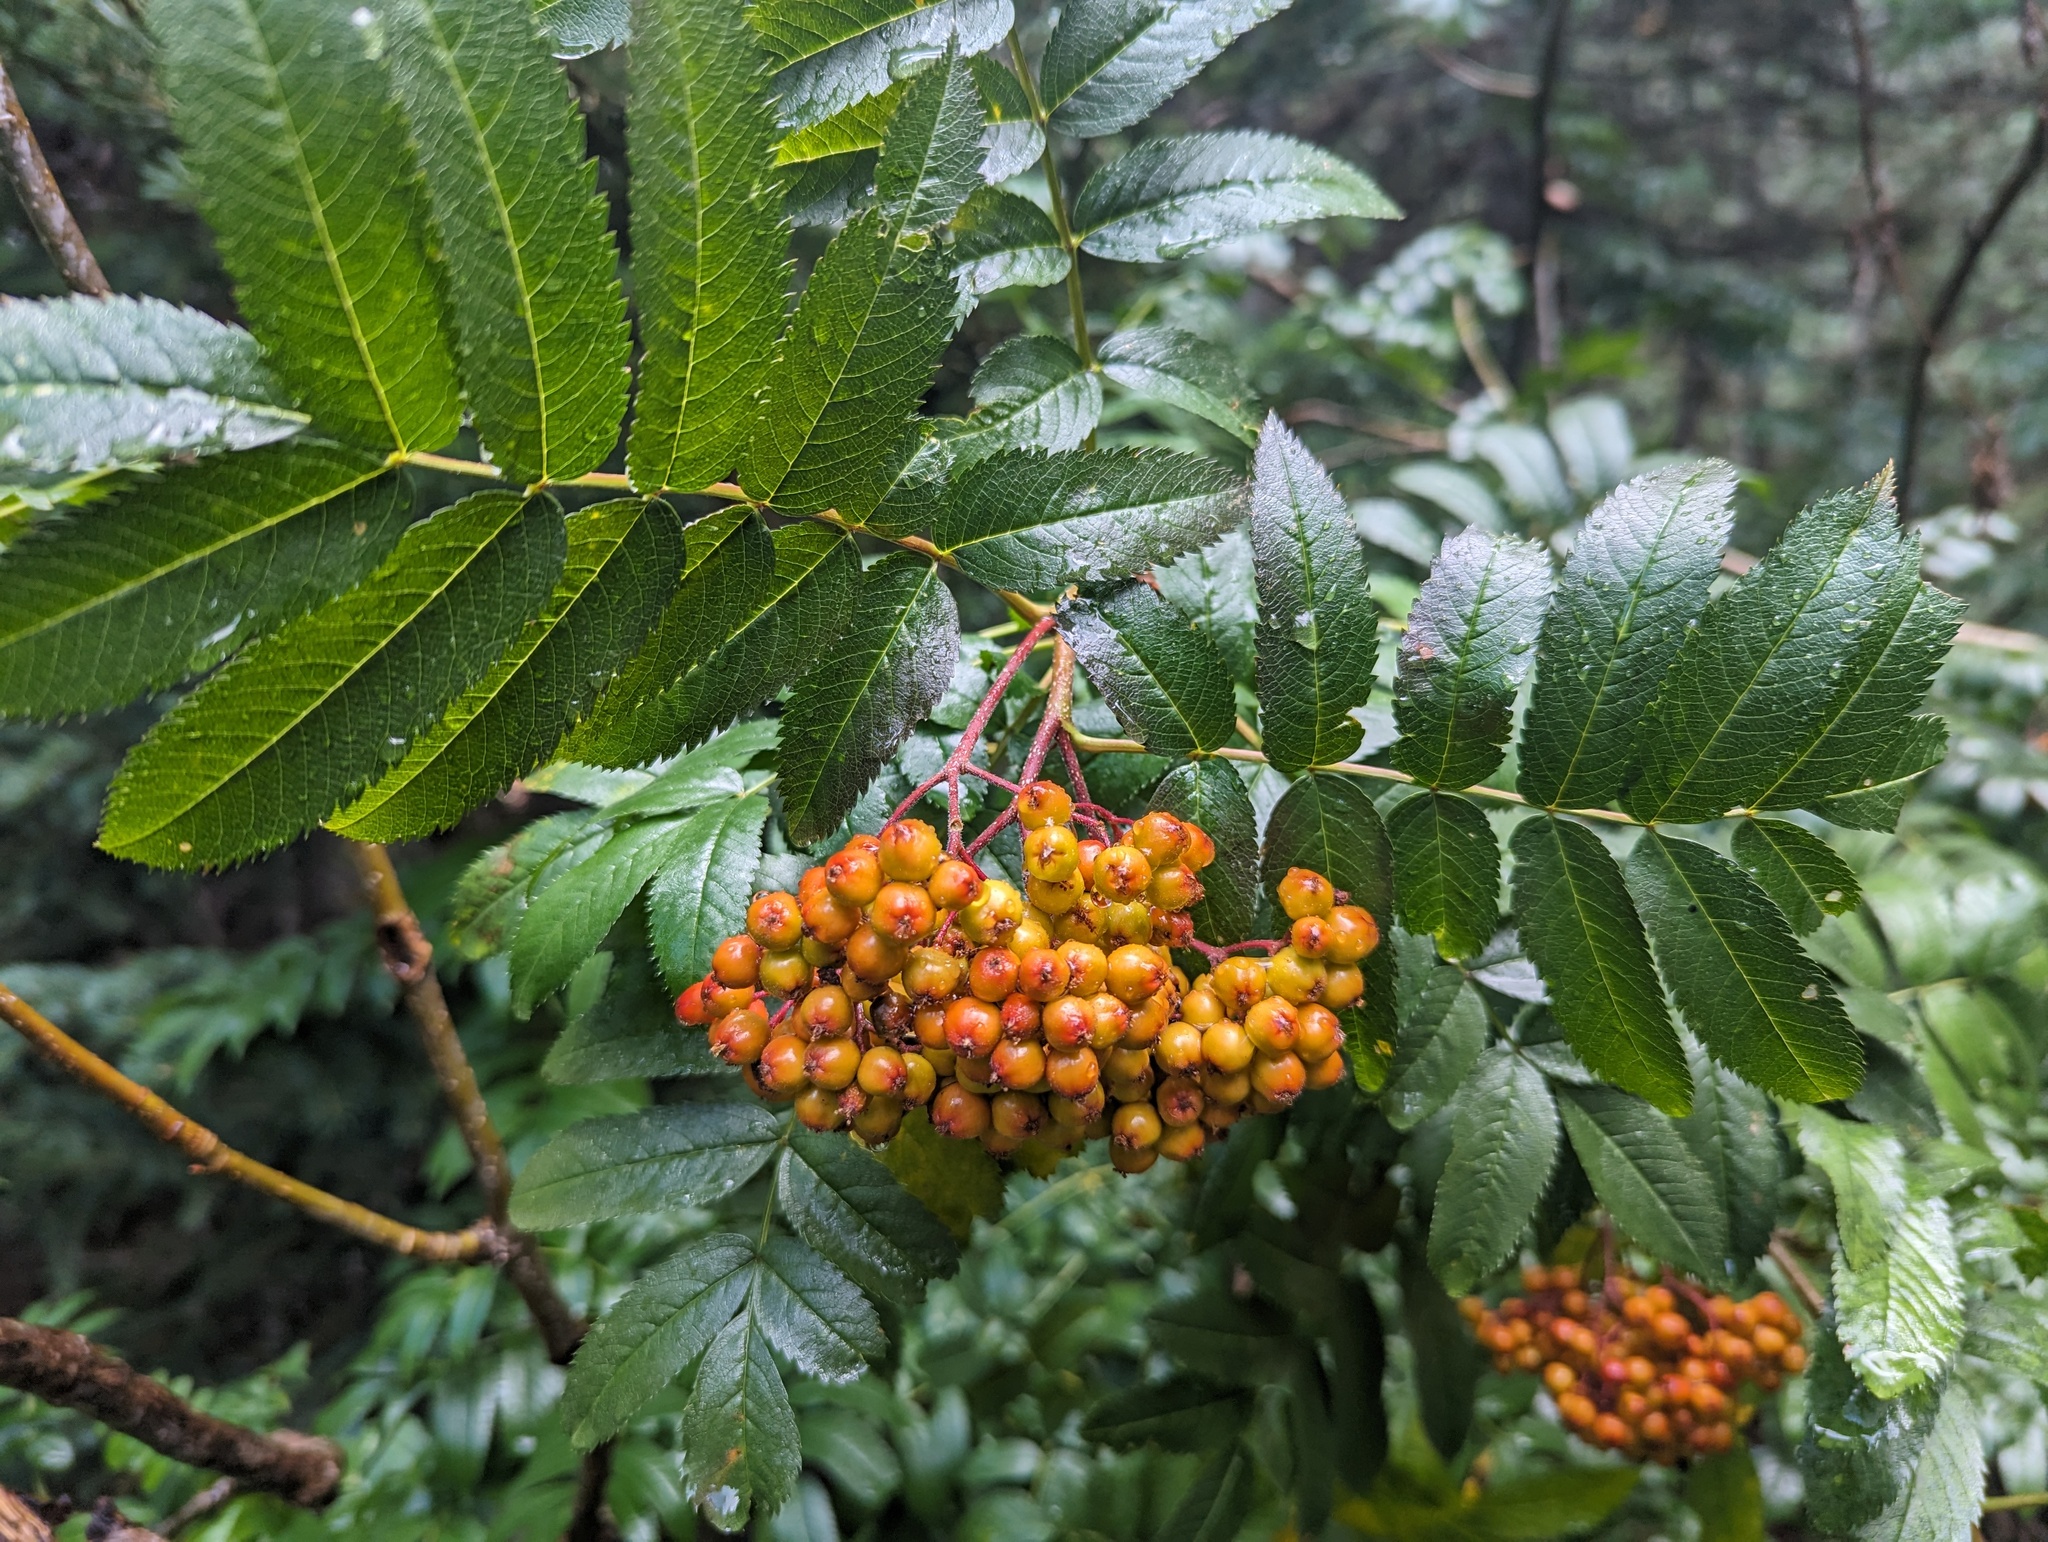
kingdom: Plantae
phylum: Tracheophyta
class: Magnoliopsida
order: Rosales
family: Rosaceae
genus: Sorbus
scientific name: Sorbus scopulina
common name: Greene's mountain-ash
